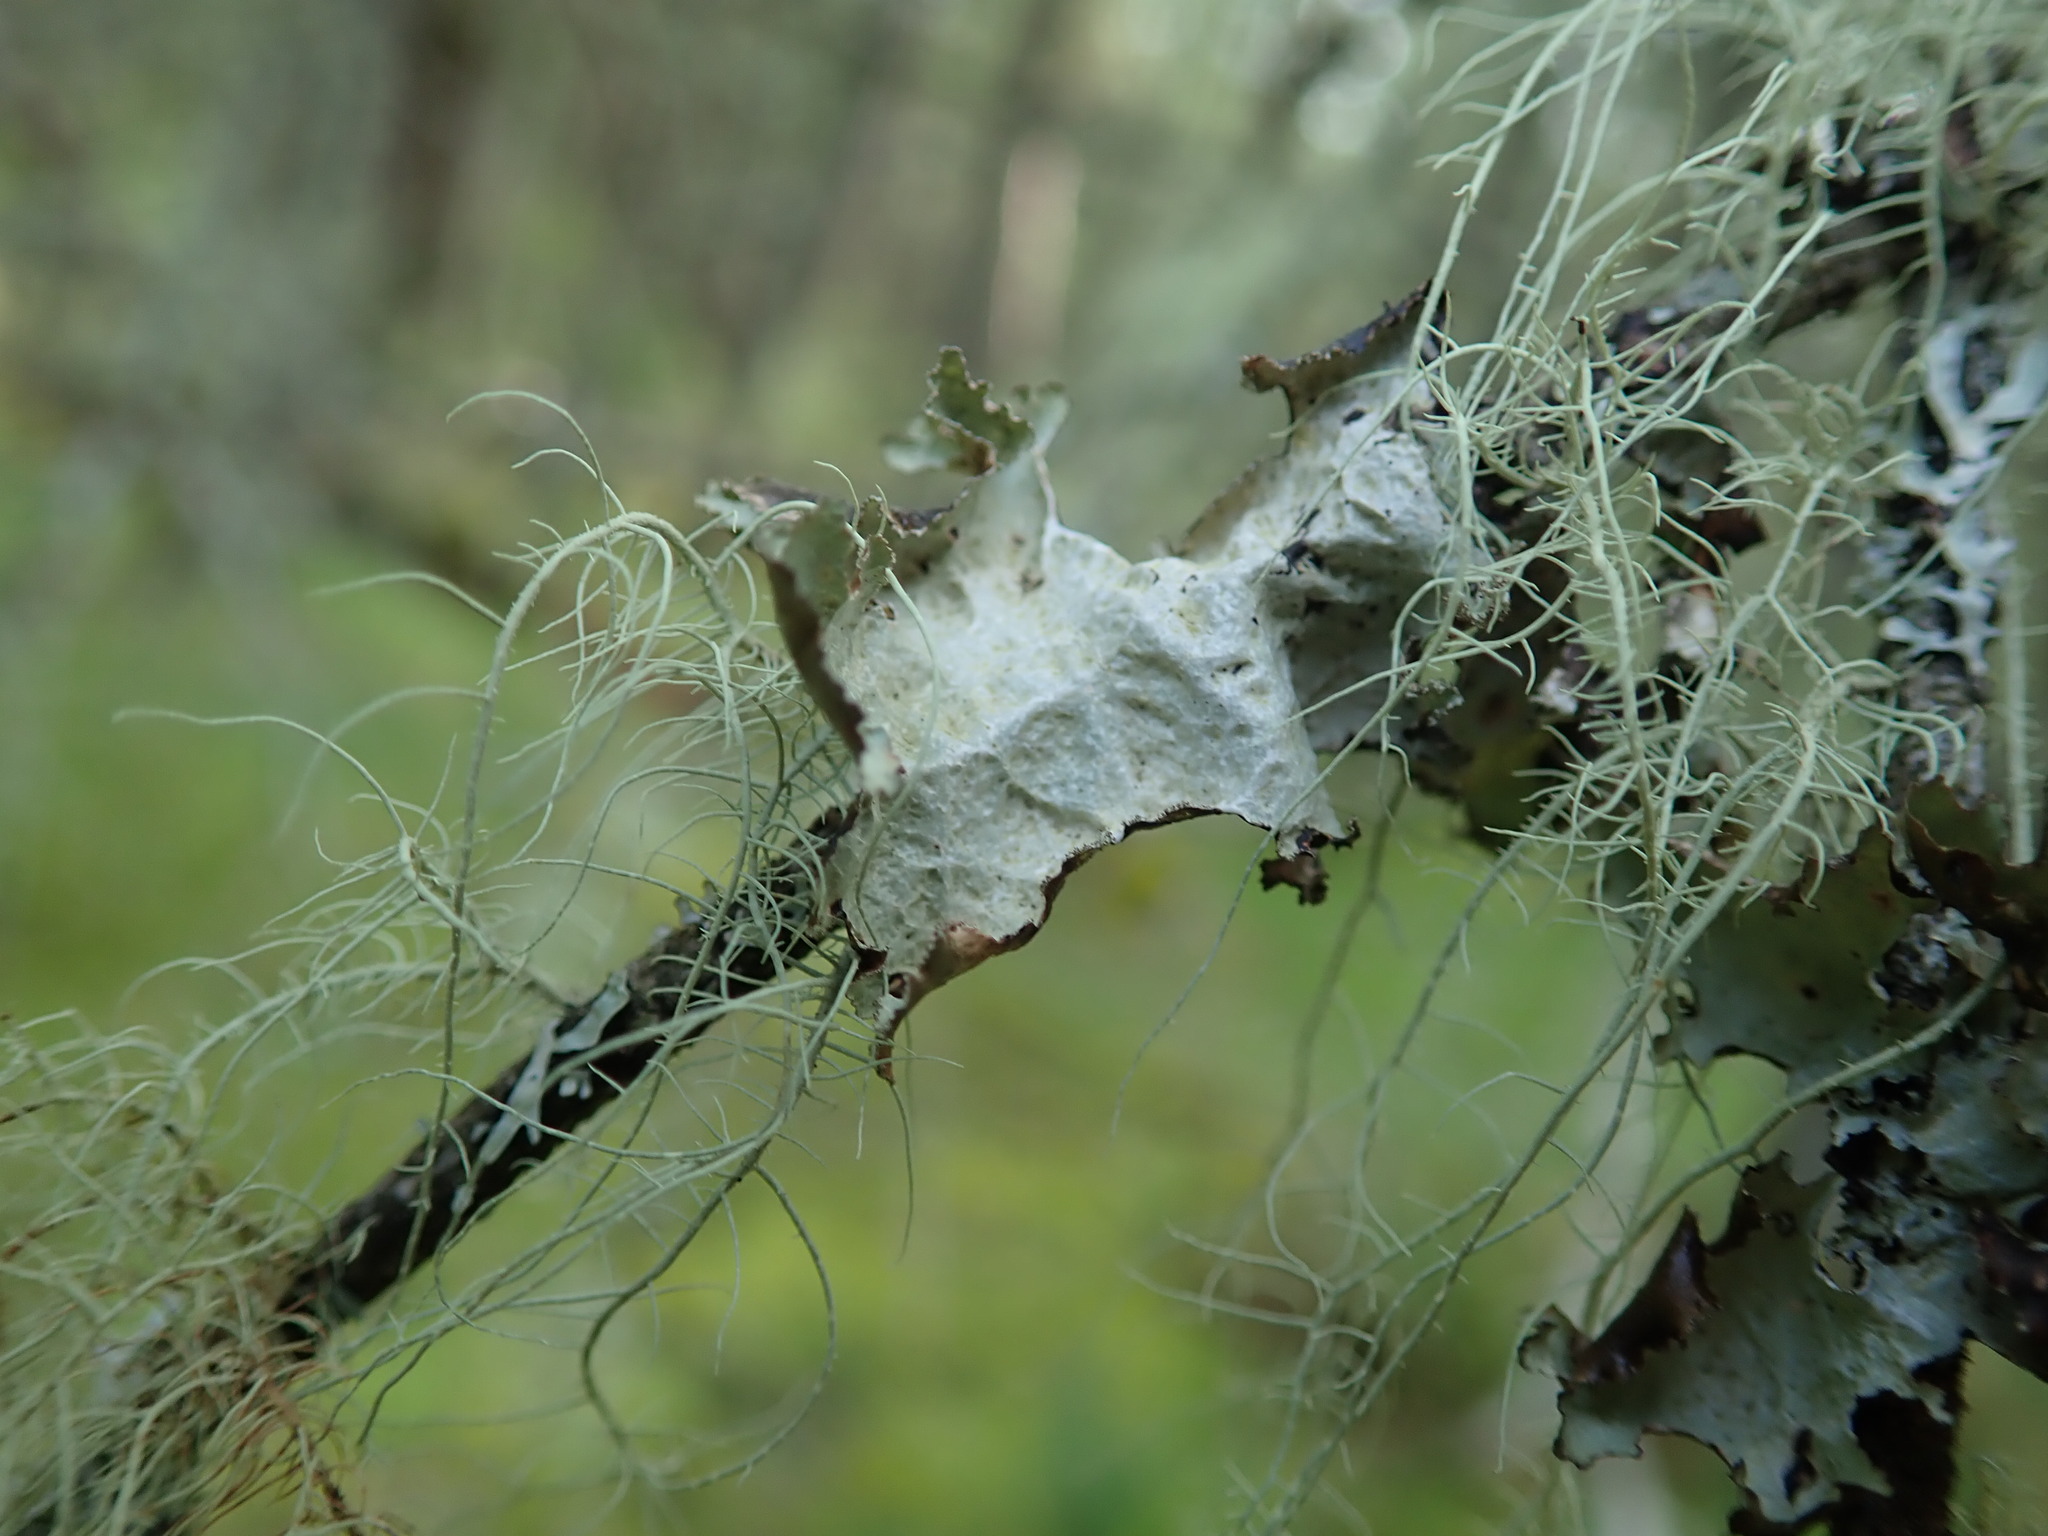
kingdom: Fungi
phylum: Ascomycota
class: Lecanoromycetes
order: Lecanorales
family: Parmeliaceae
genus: Platismatia
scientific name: Platismatia glauca
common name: Varied rag lichen
